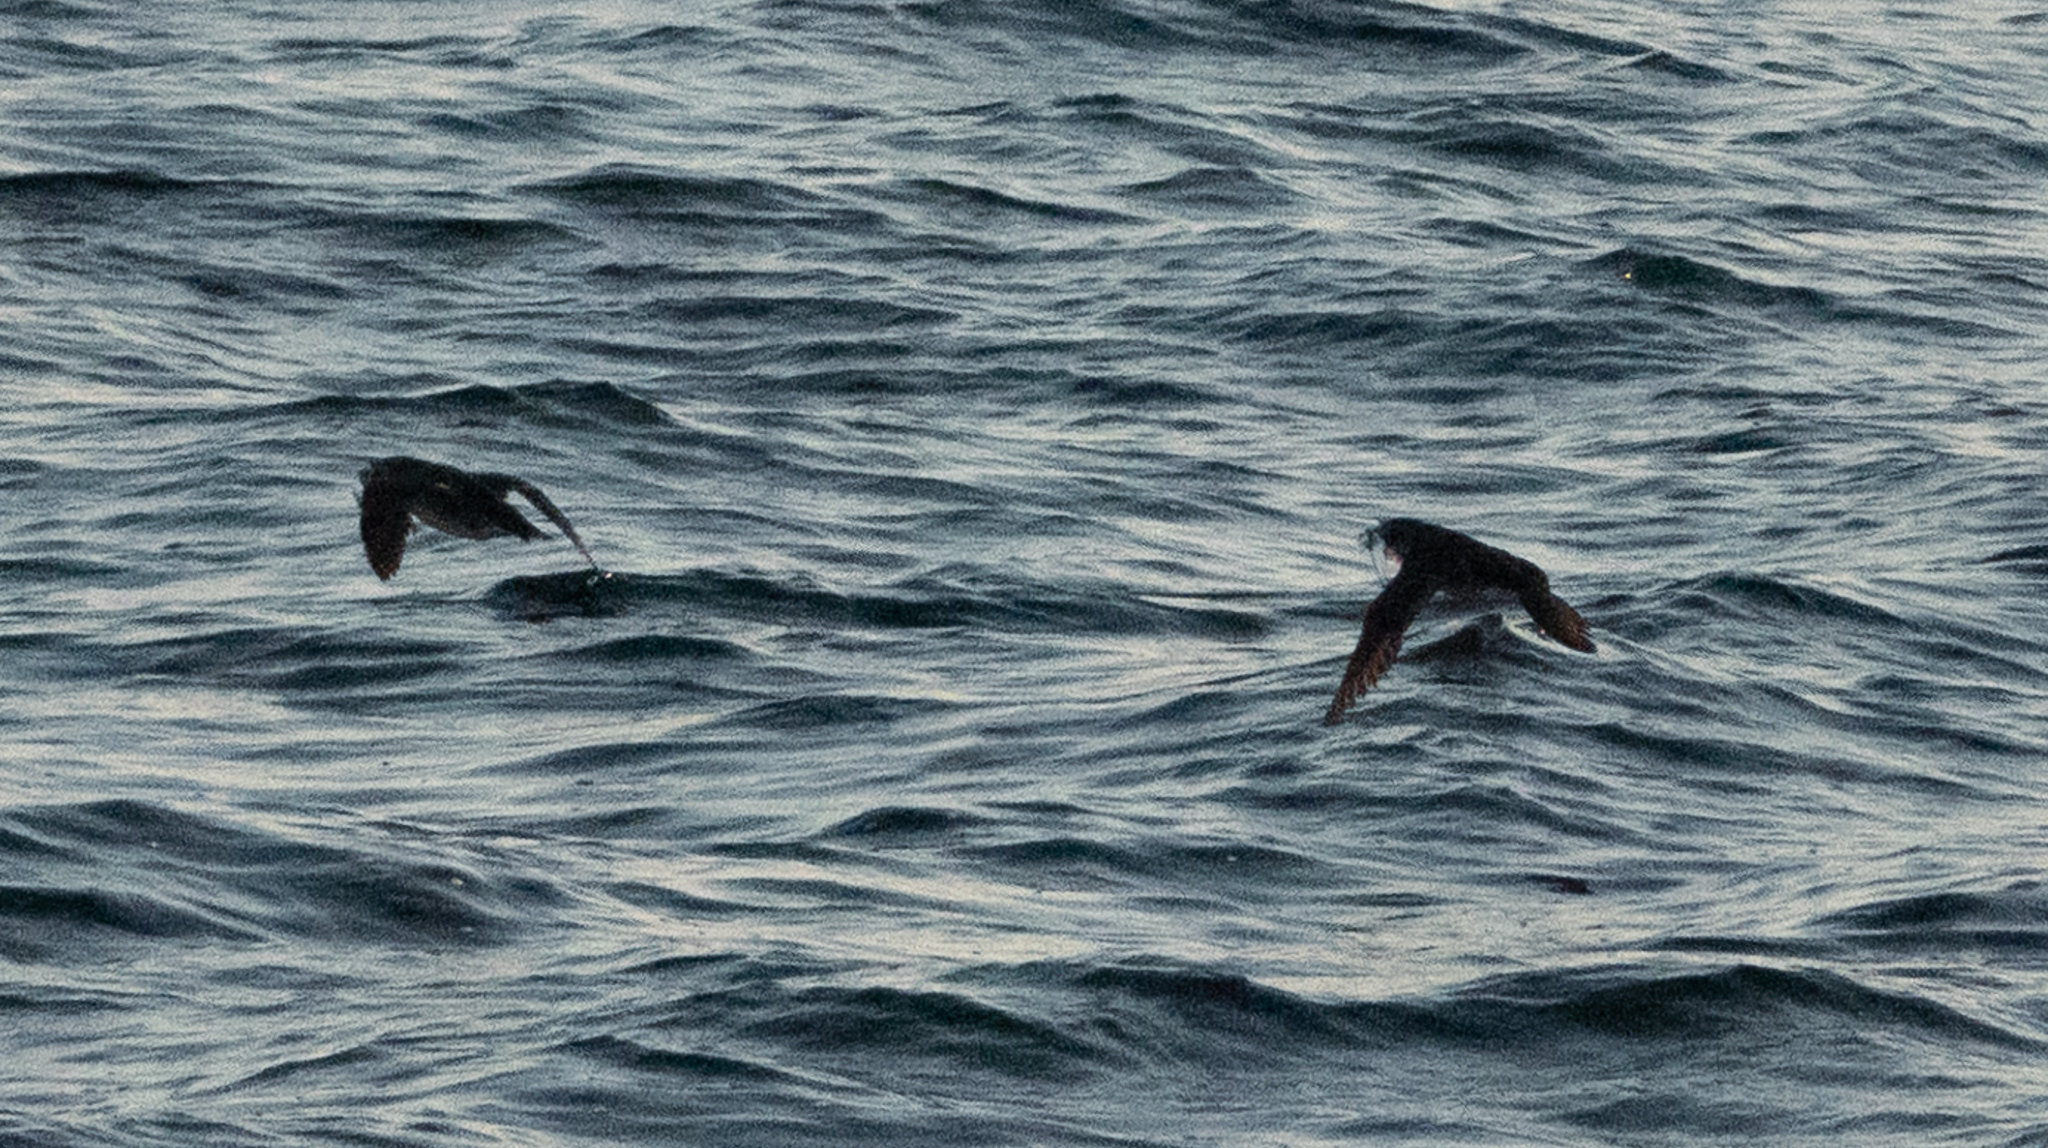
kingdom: Animalia
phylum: Chordata
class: Aves
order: Charadriiformes
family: Alcidae
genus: Cerorhinca
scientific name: Cerorhinca monocerata
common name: Rhinoceros auklet
